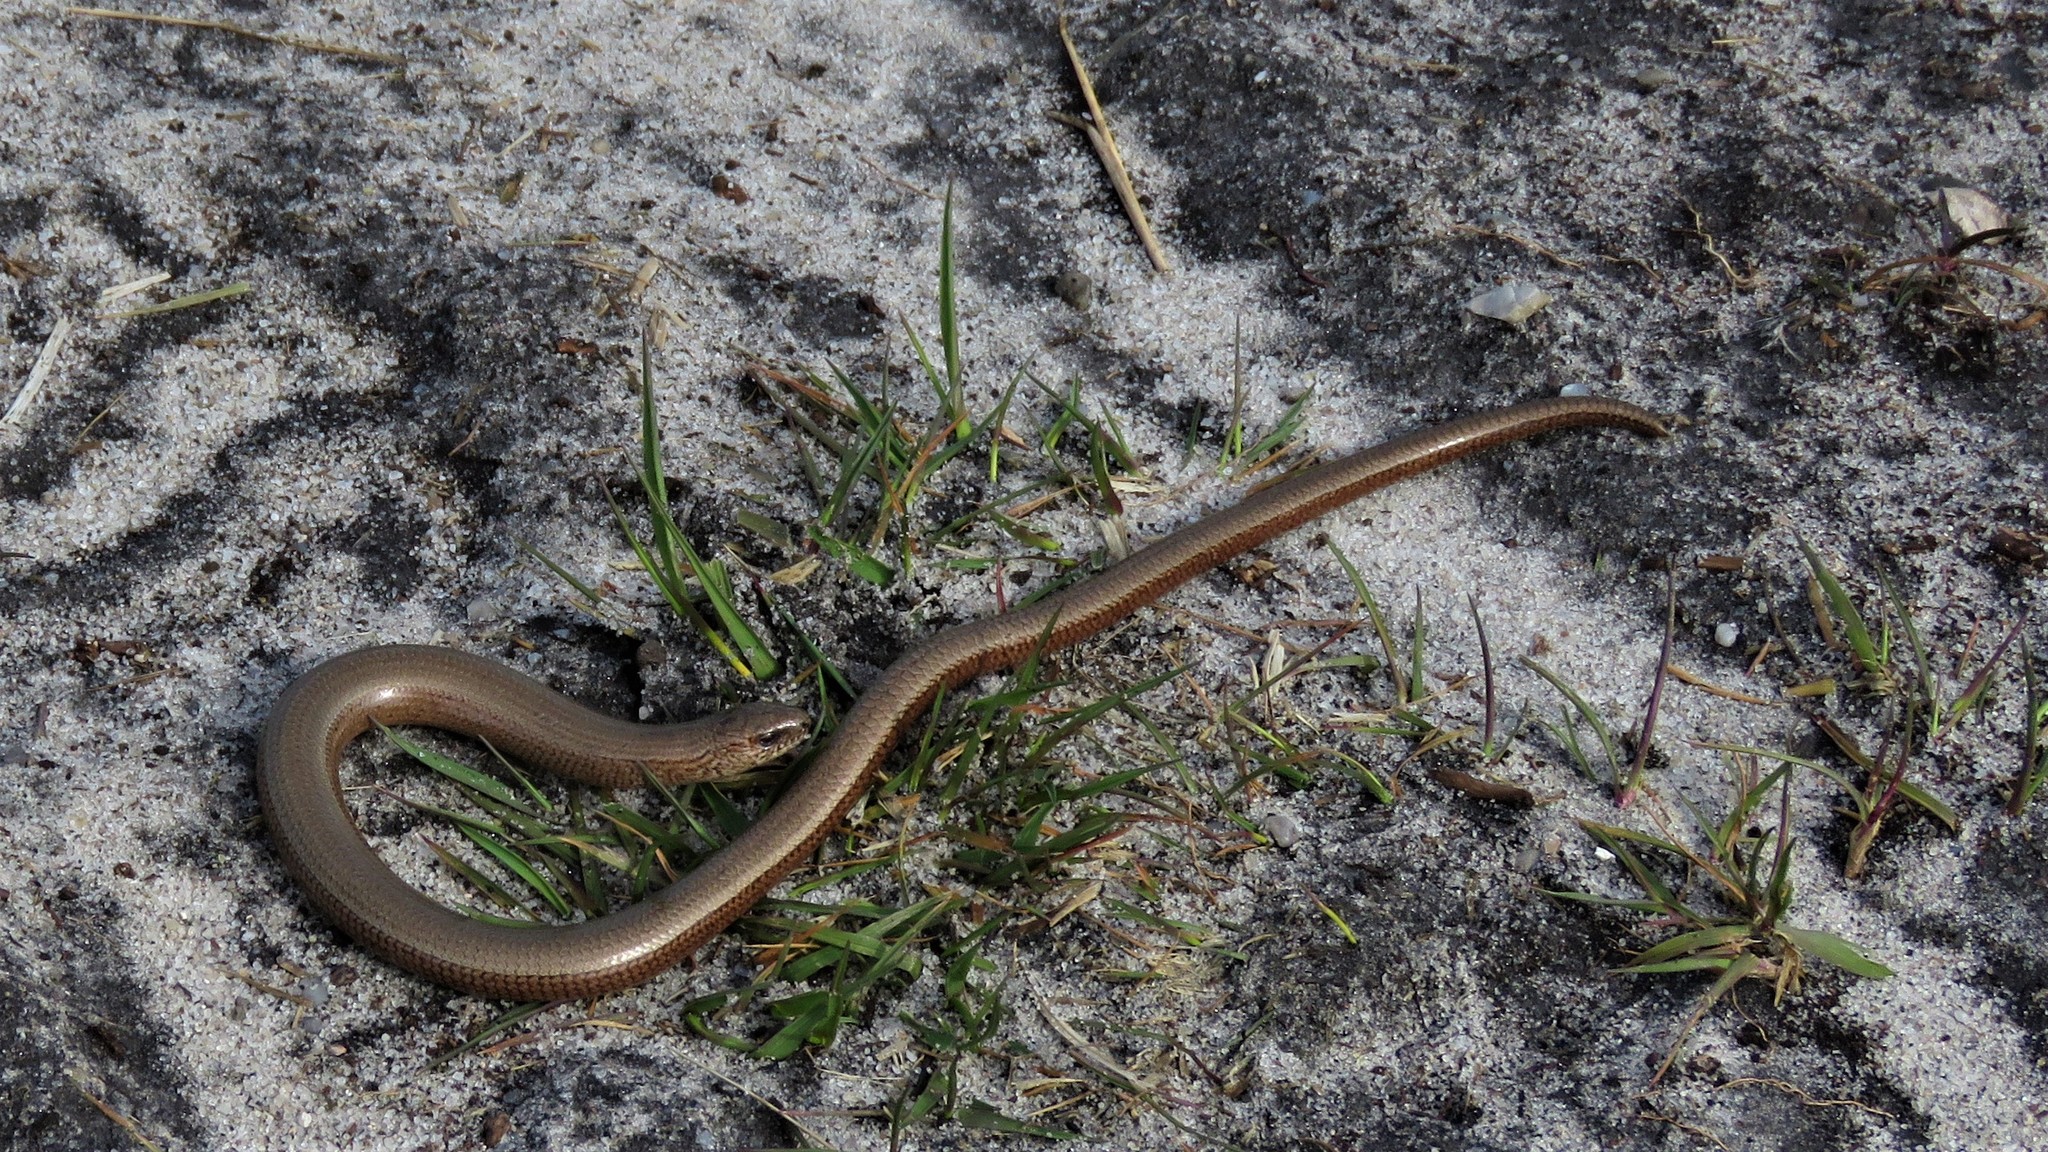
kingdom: Animalia
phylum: Chordata
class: Squamata
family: Anguidae
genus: Anguis
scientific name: Anguis fragilis
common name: Slow worm
